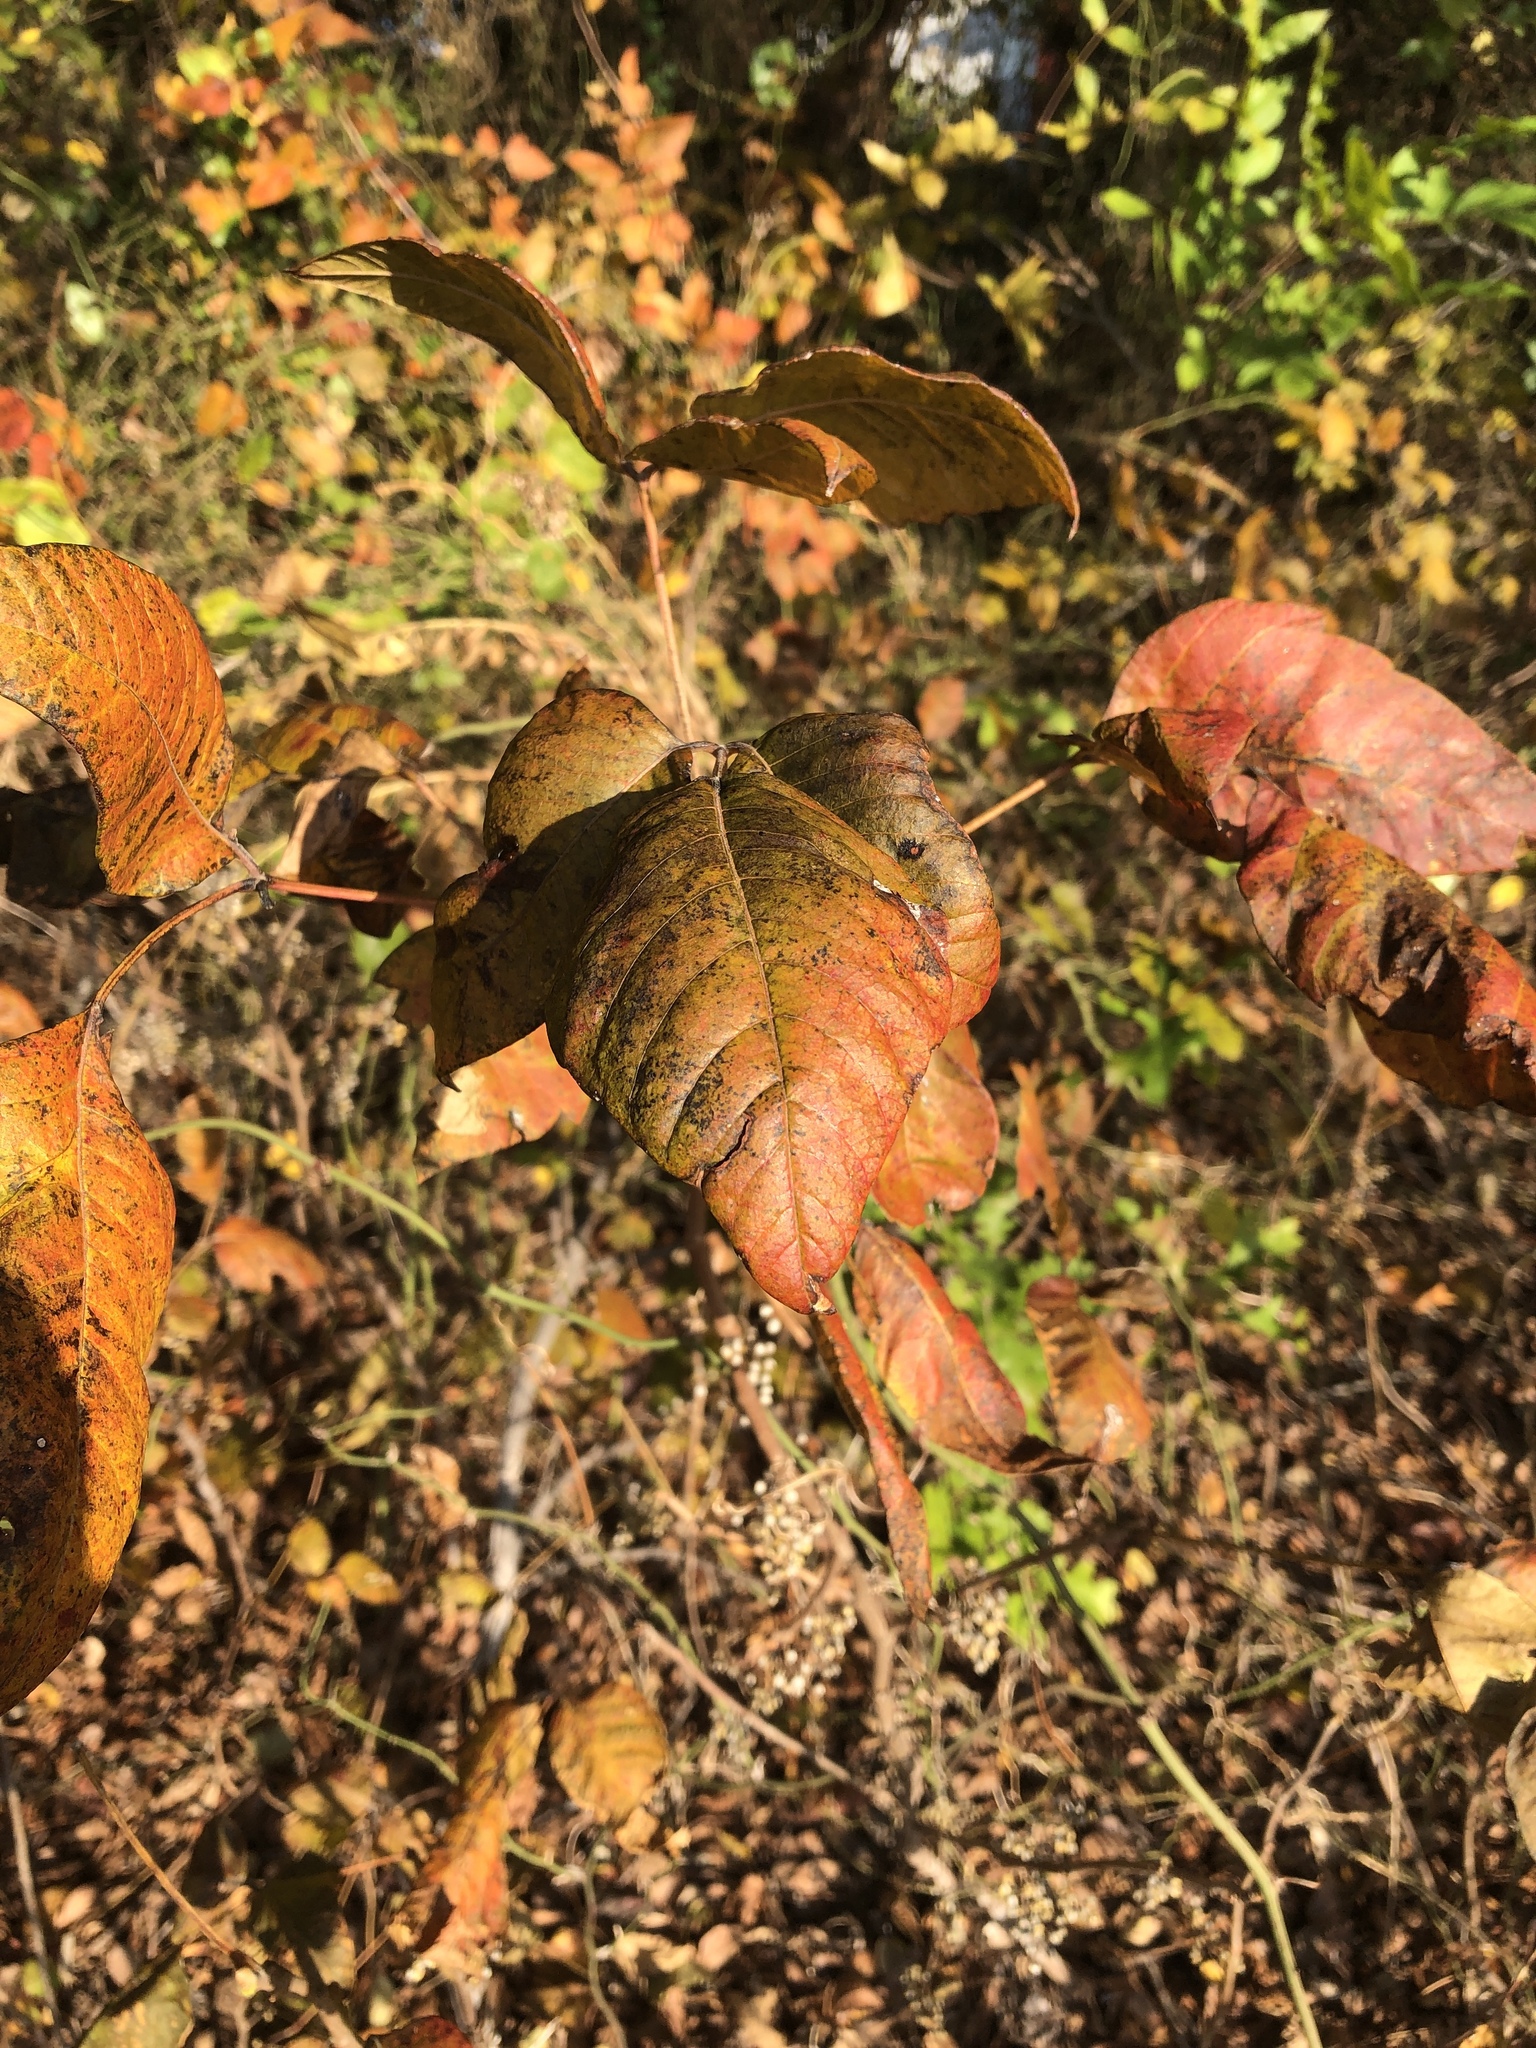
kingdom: Plantae
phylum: Tracheophyta
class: Magnoliopsida
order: Sapindales
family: Anacardiaceae
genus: Toxicodendron
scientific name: Toxicodendron radicans
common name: Poison ivy
